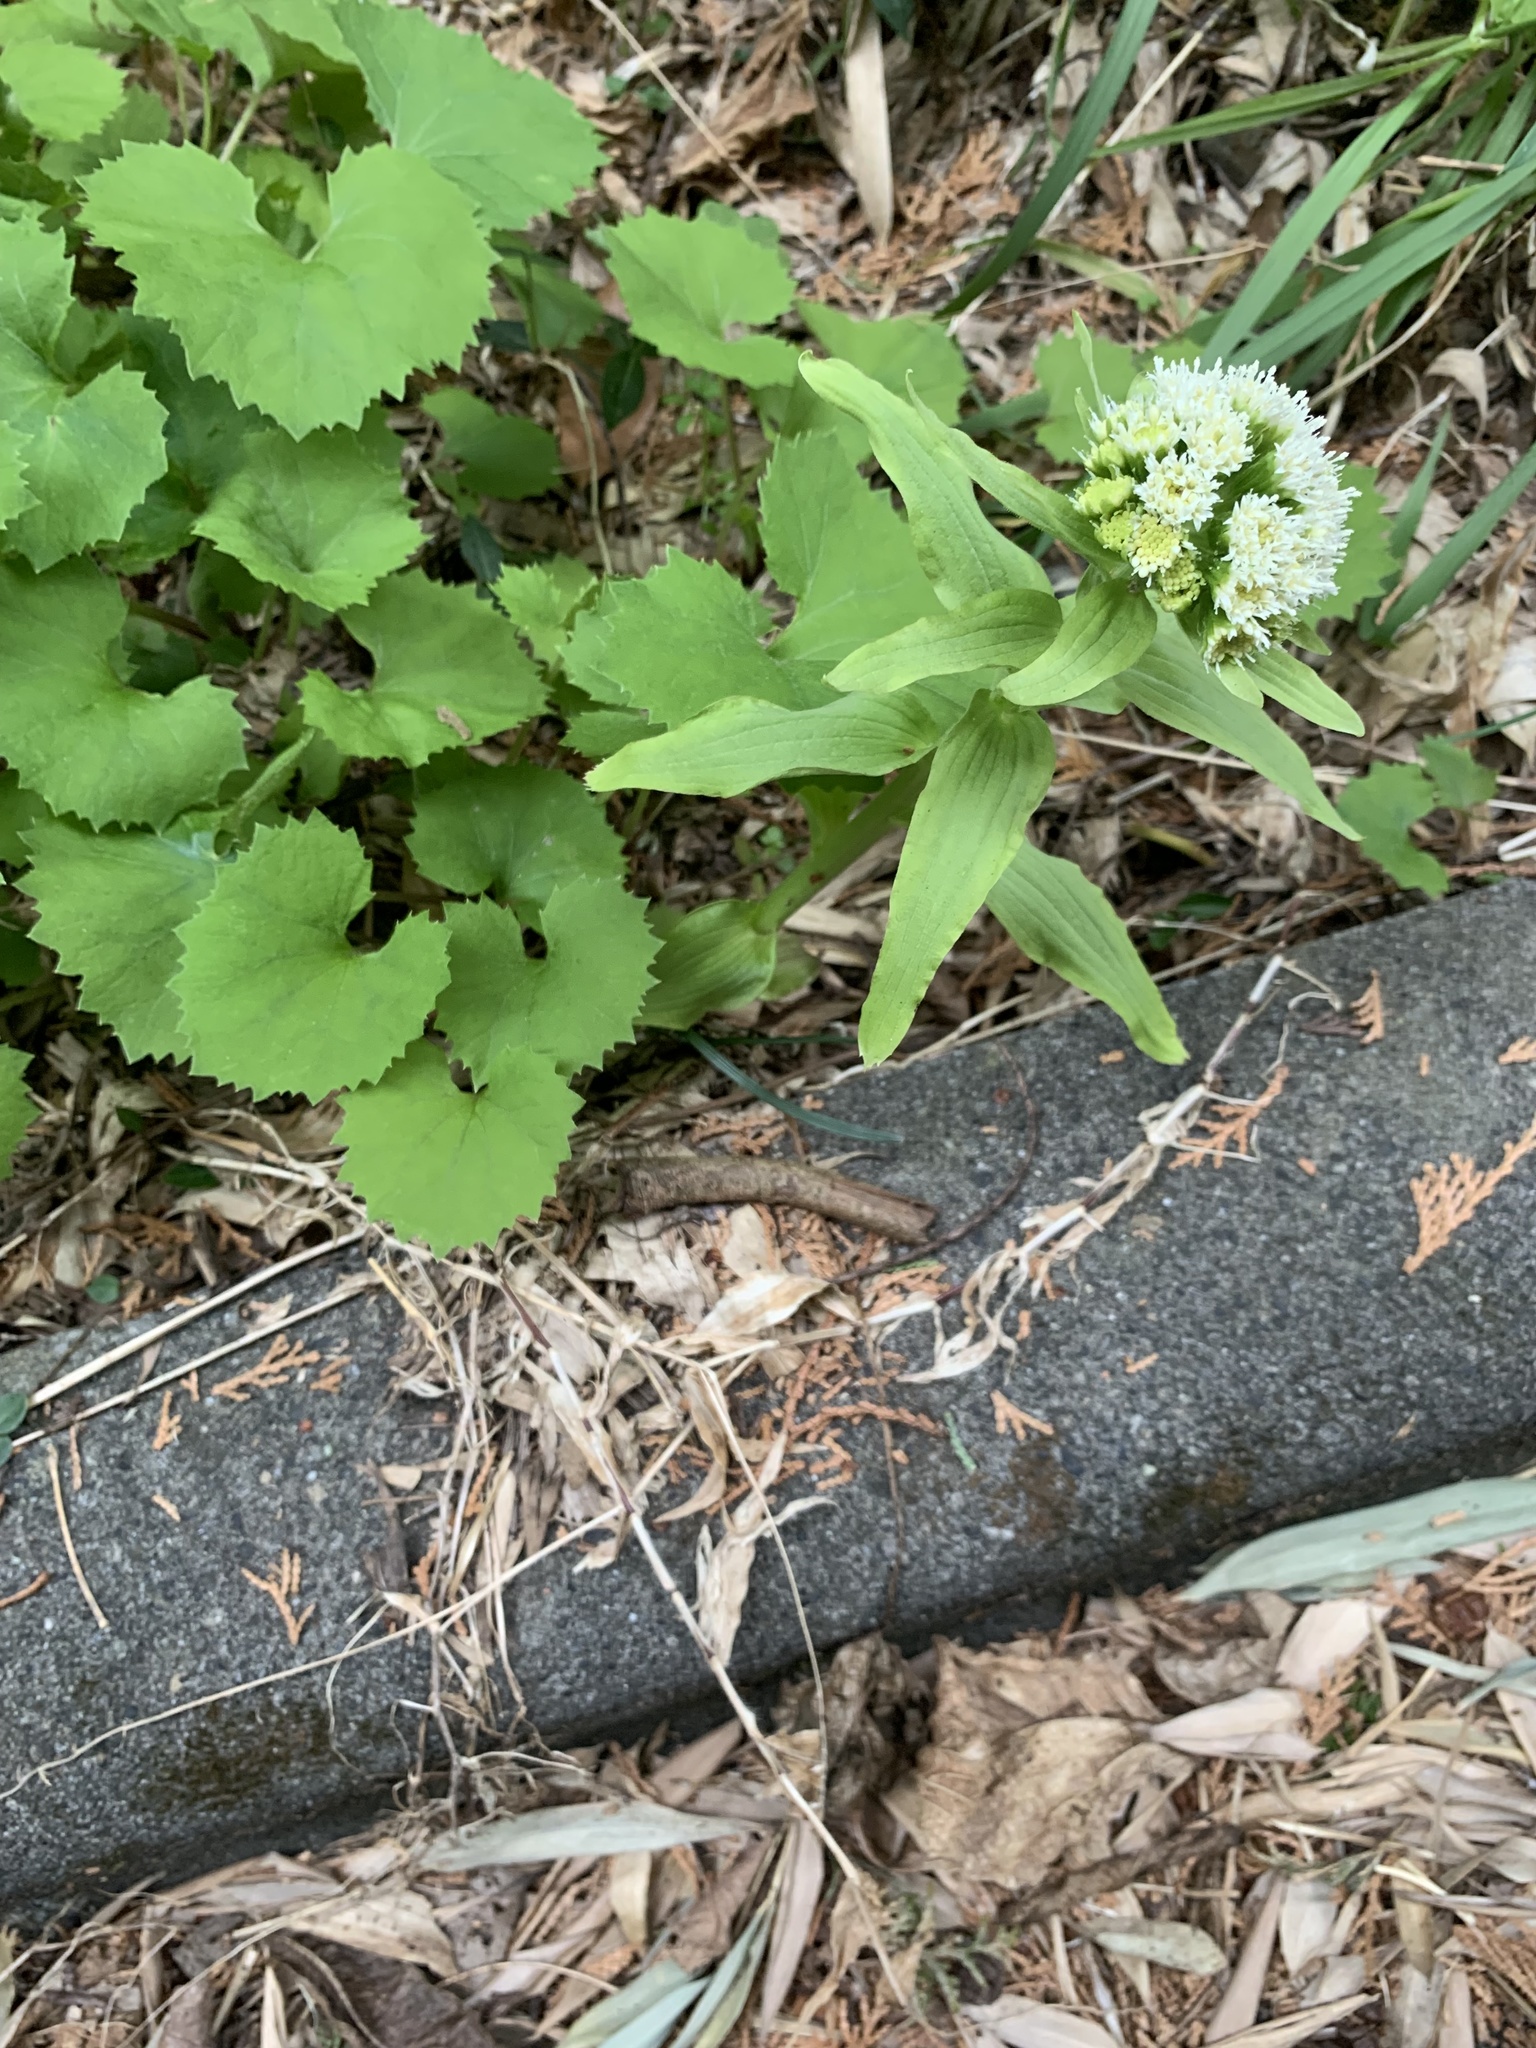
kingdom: Plantae
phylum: Tracheophyta
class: Magnoliopsida
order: Asterales
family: Asteraceae
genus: Petasites
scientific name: Petasites japonicus
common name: Giant butterbur
